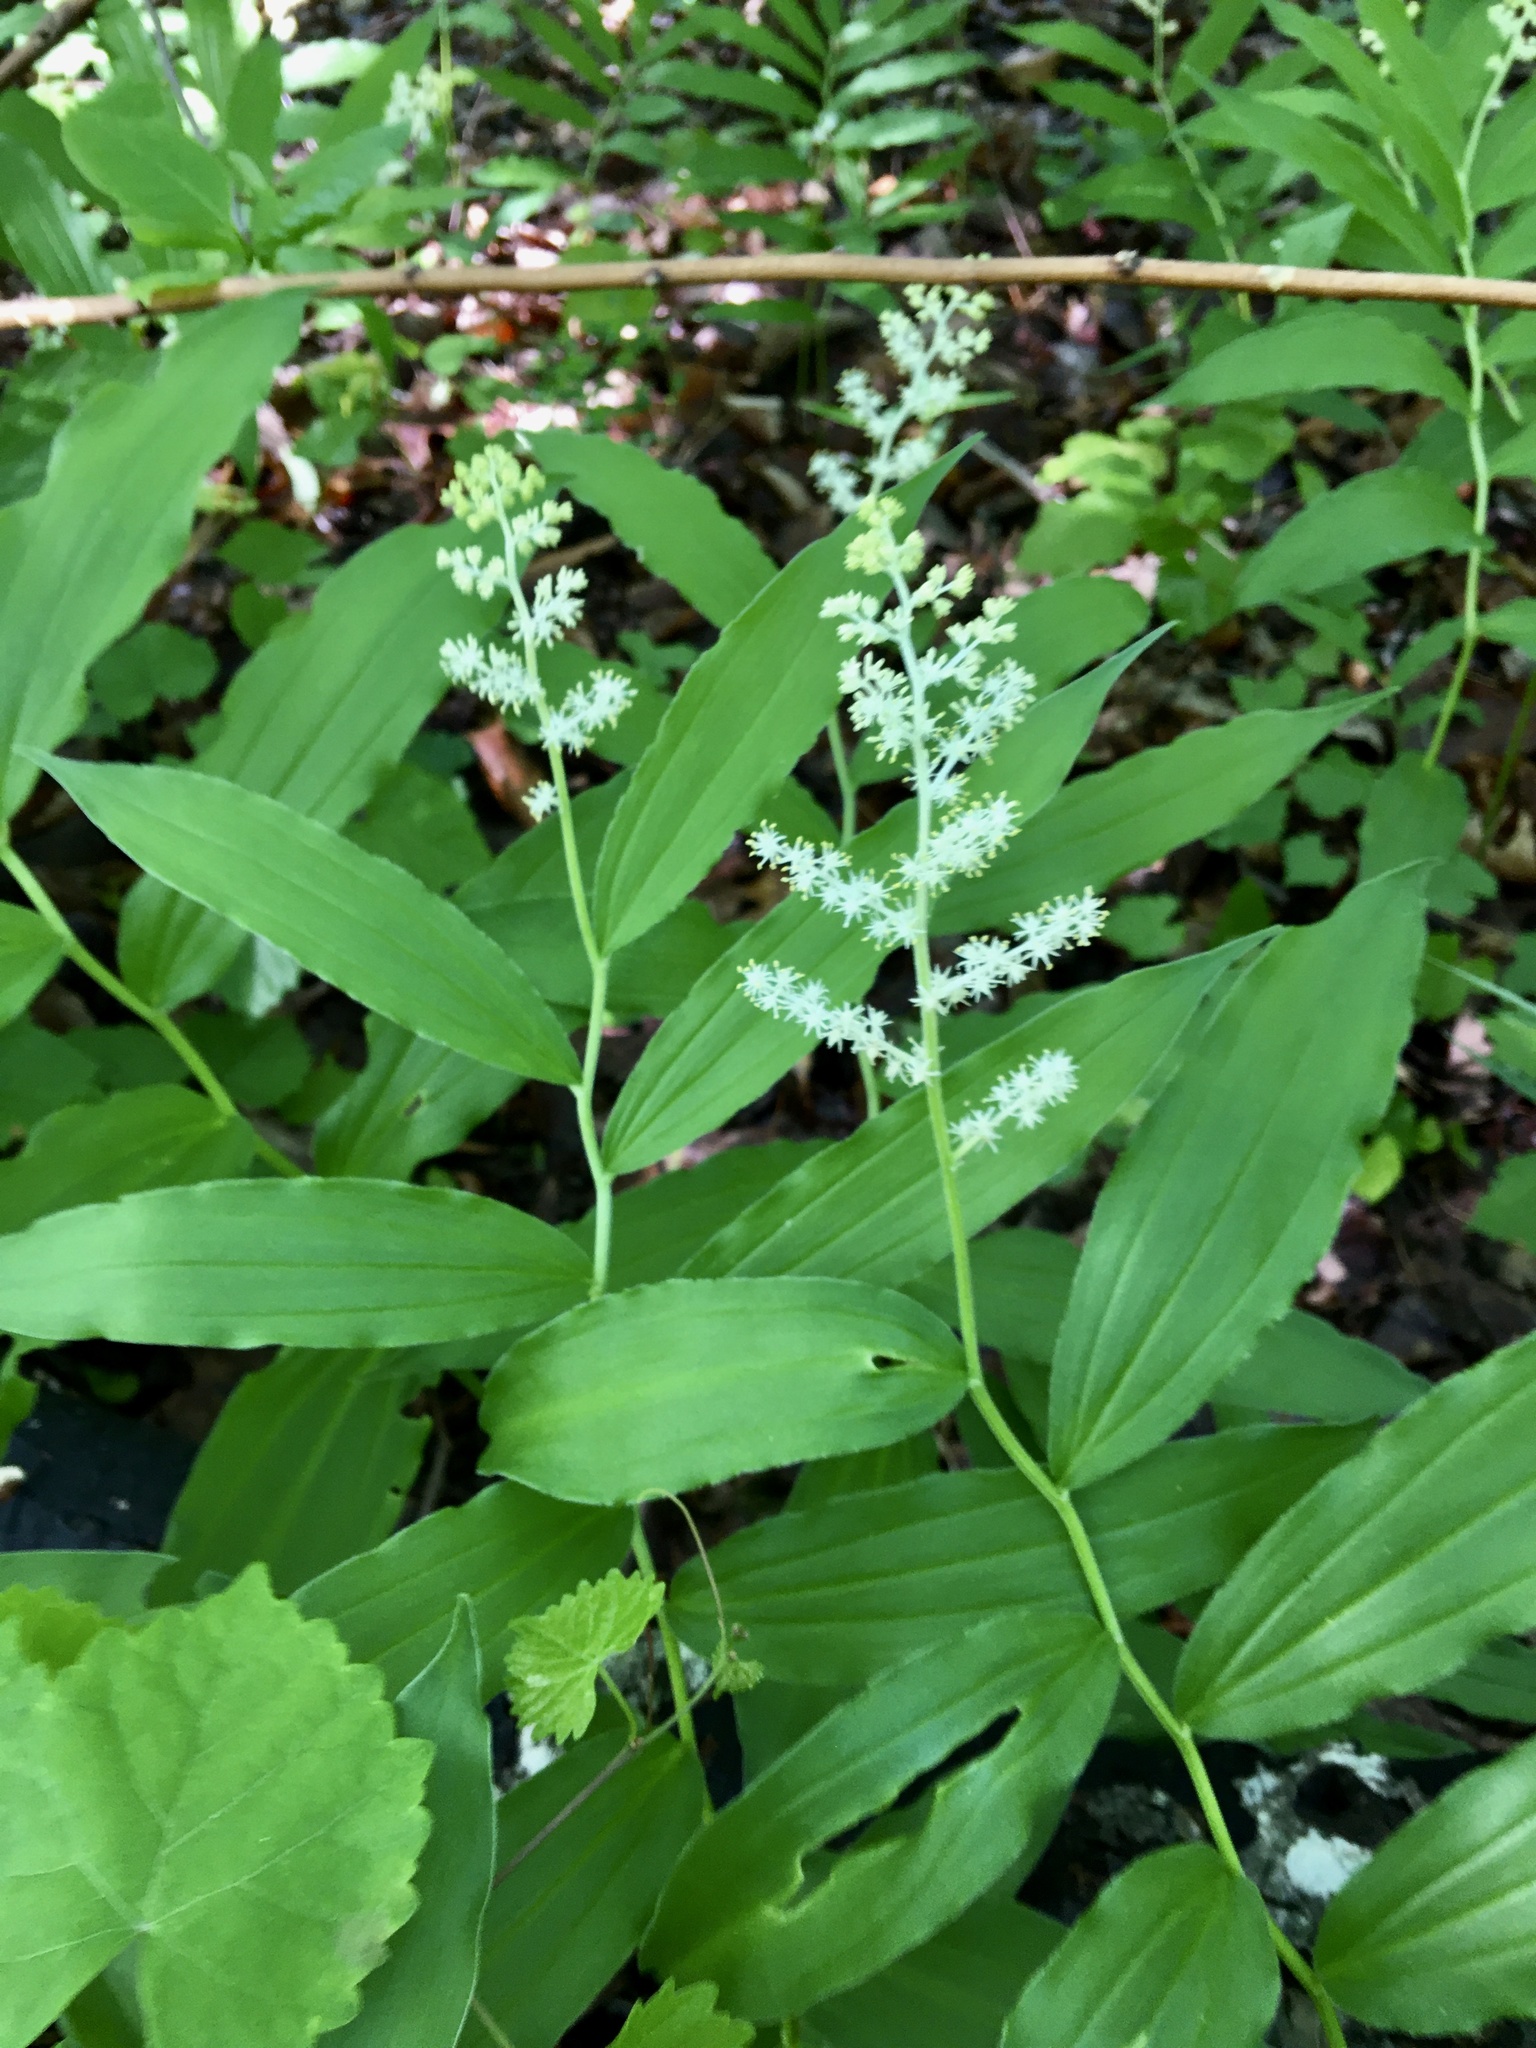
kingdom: Plantae
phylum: Tracheophyta
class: Liliopsida
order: Asparagales
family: Asparagaceae
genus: Maianthemum
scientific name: Maianthemum racemosum
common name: False spikenard
